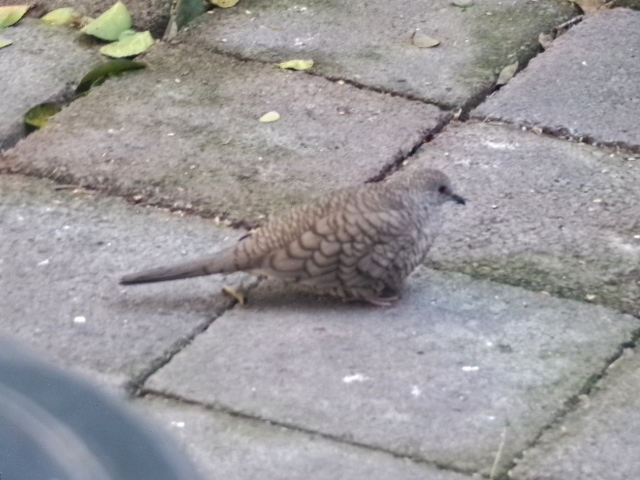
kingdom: Animalia
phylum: Chordata
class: Aves
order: Columbiformes
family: Columbidae
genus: Columbina
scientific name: Columbina inca
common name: Inca dove
